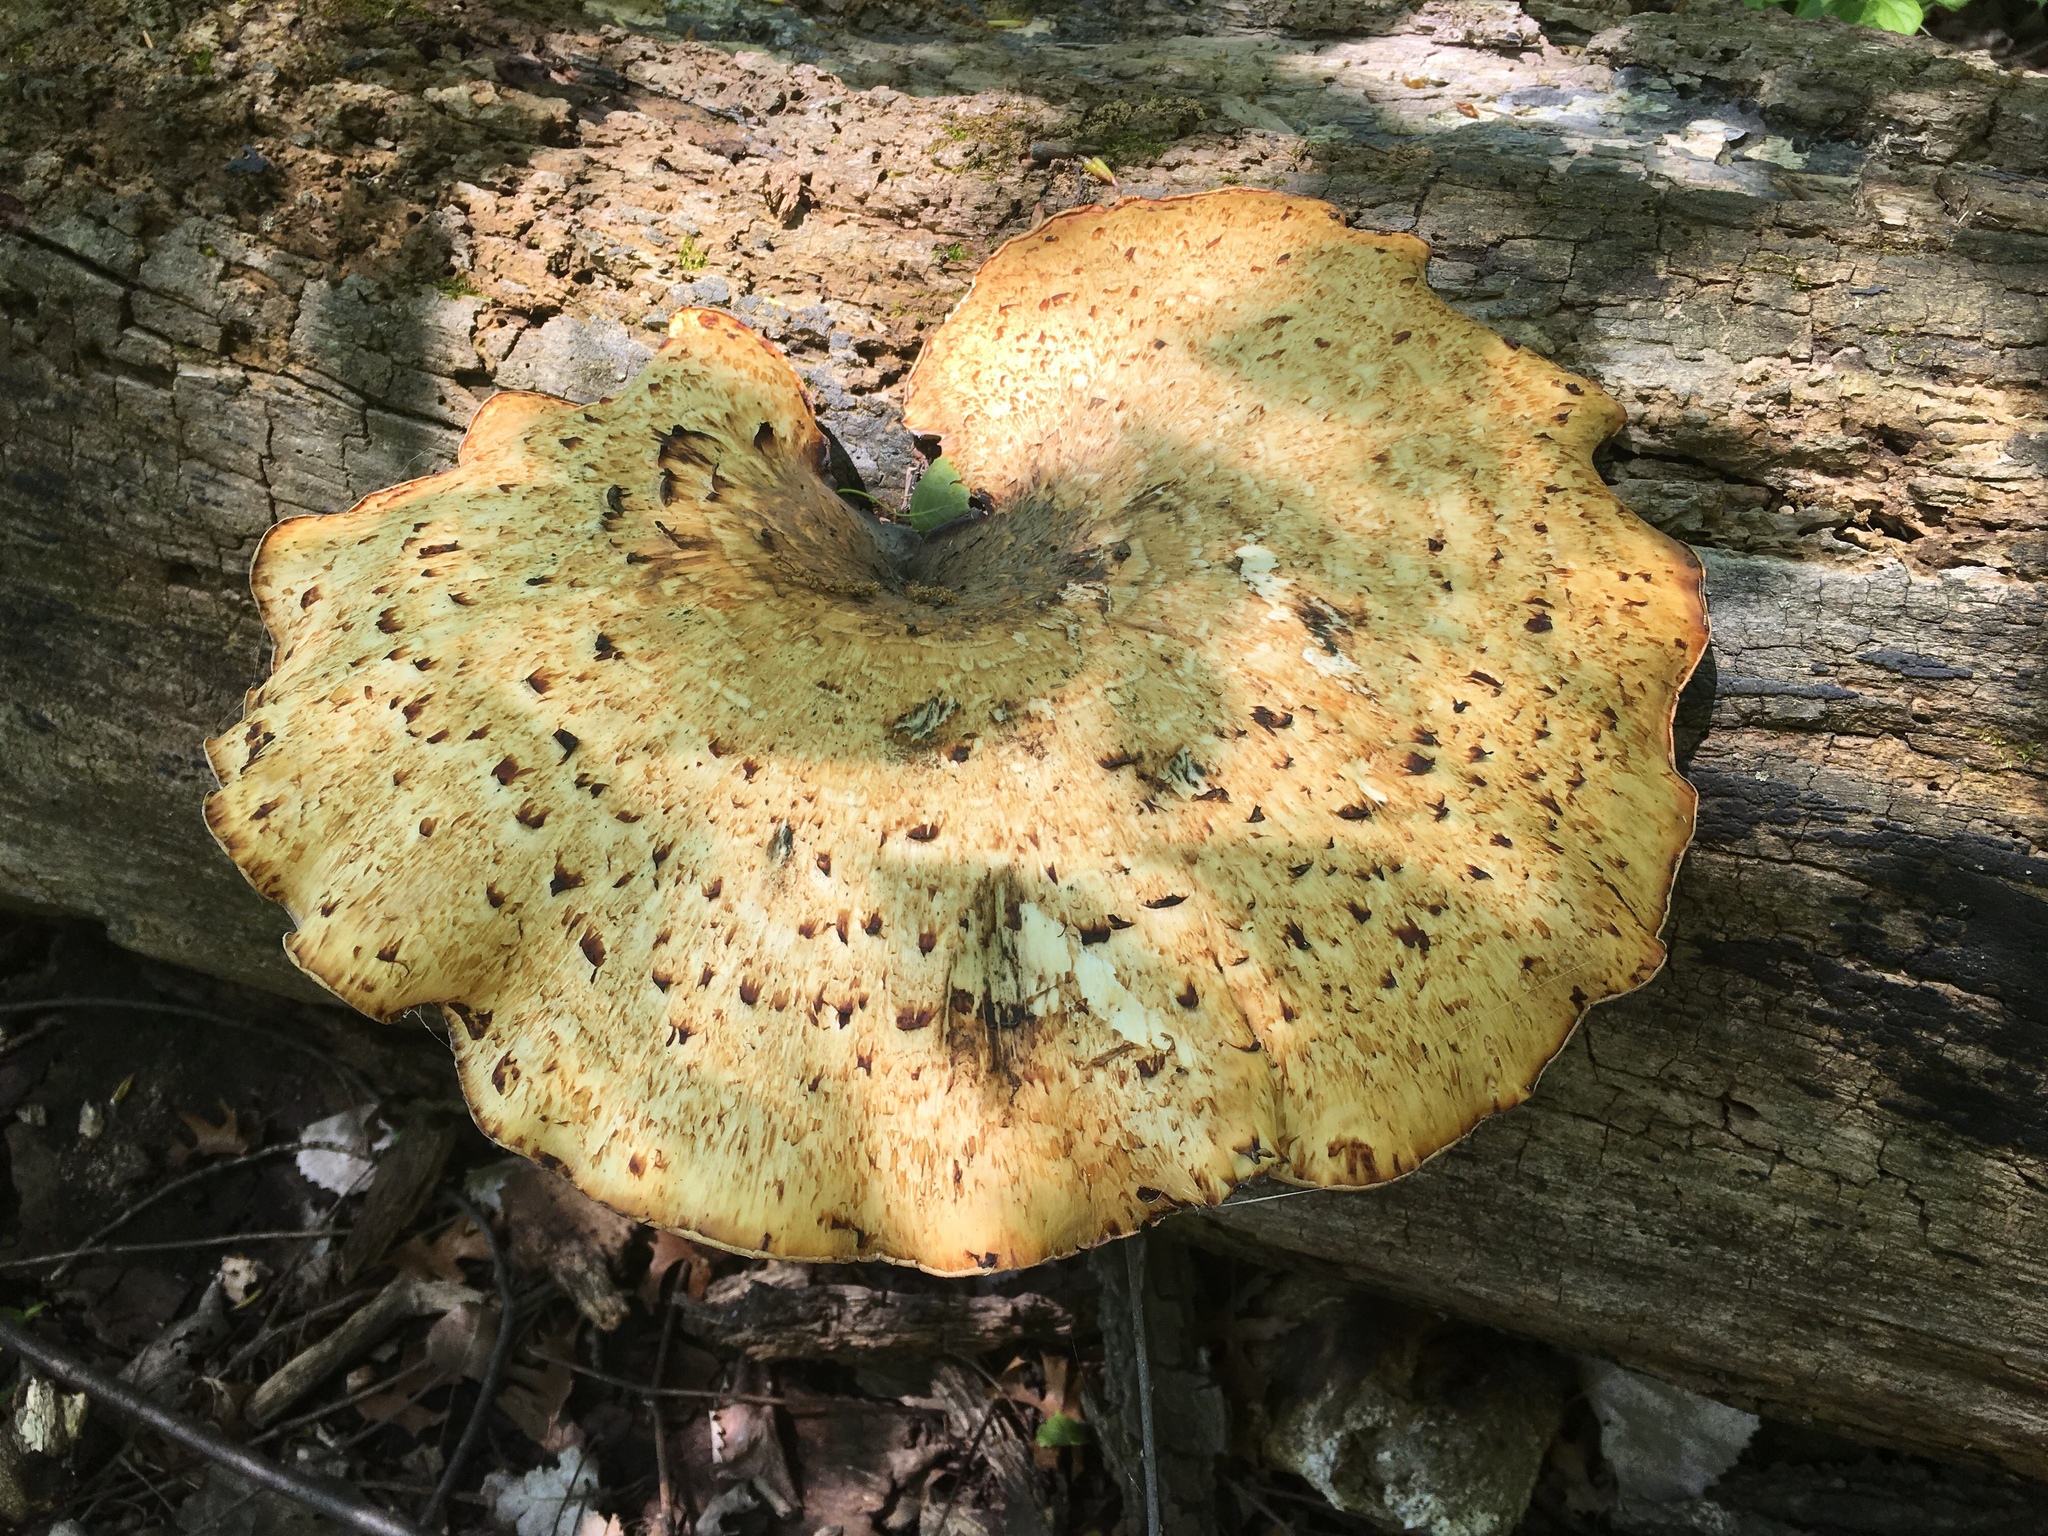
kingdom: Fungi
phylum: Basidiomycota
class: Agaricomycetes
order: Polyporales
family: Polyporaceae
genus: Cerioporus
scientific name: Cerioporus squamosus
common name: Dryad's saddle
